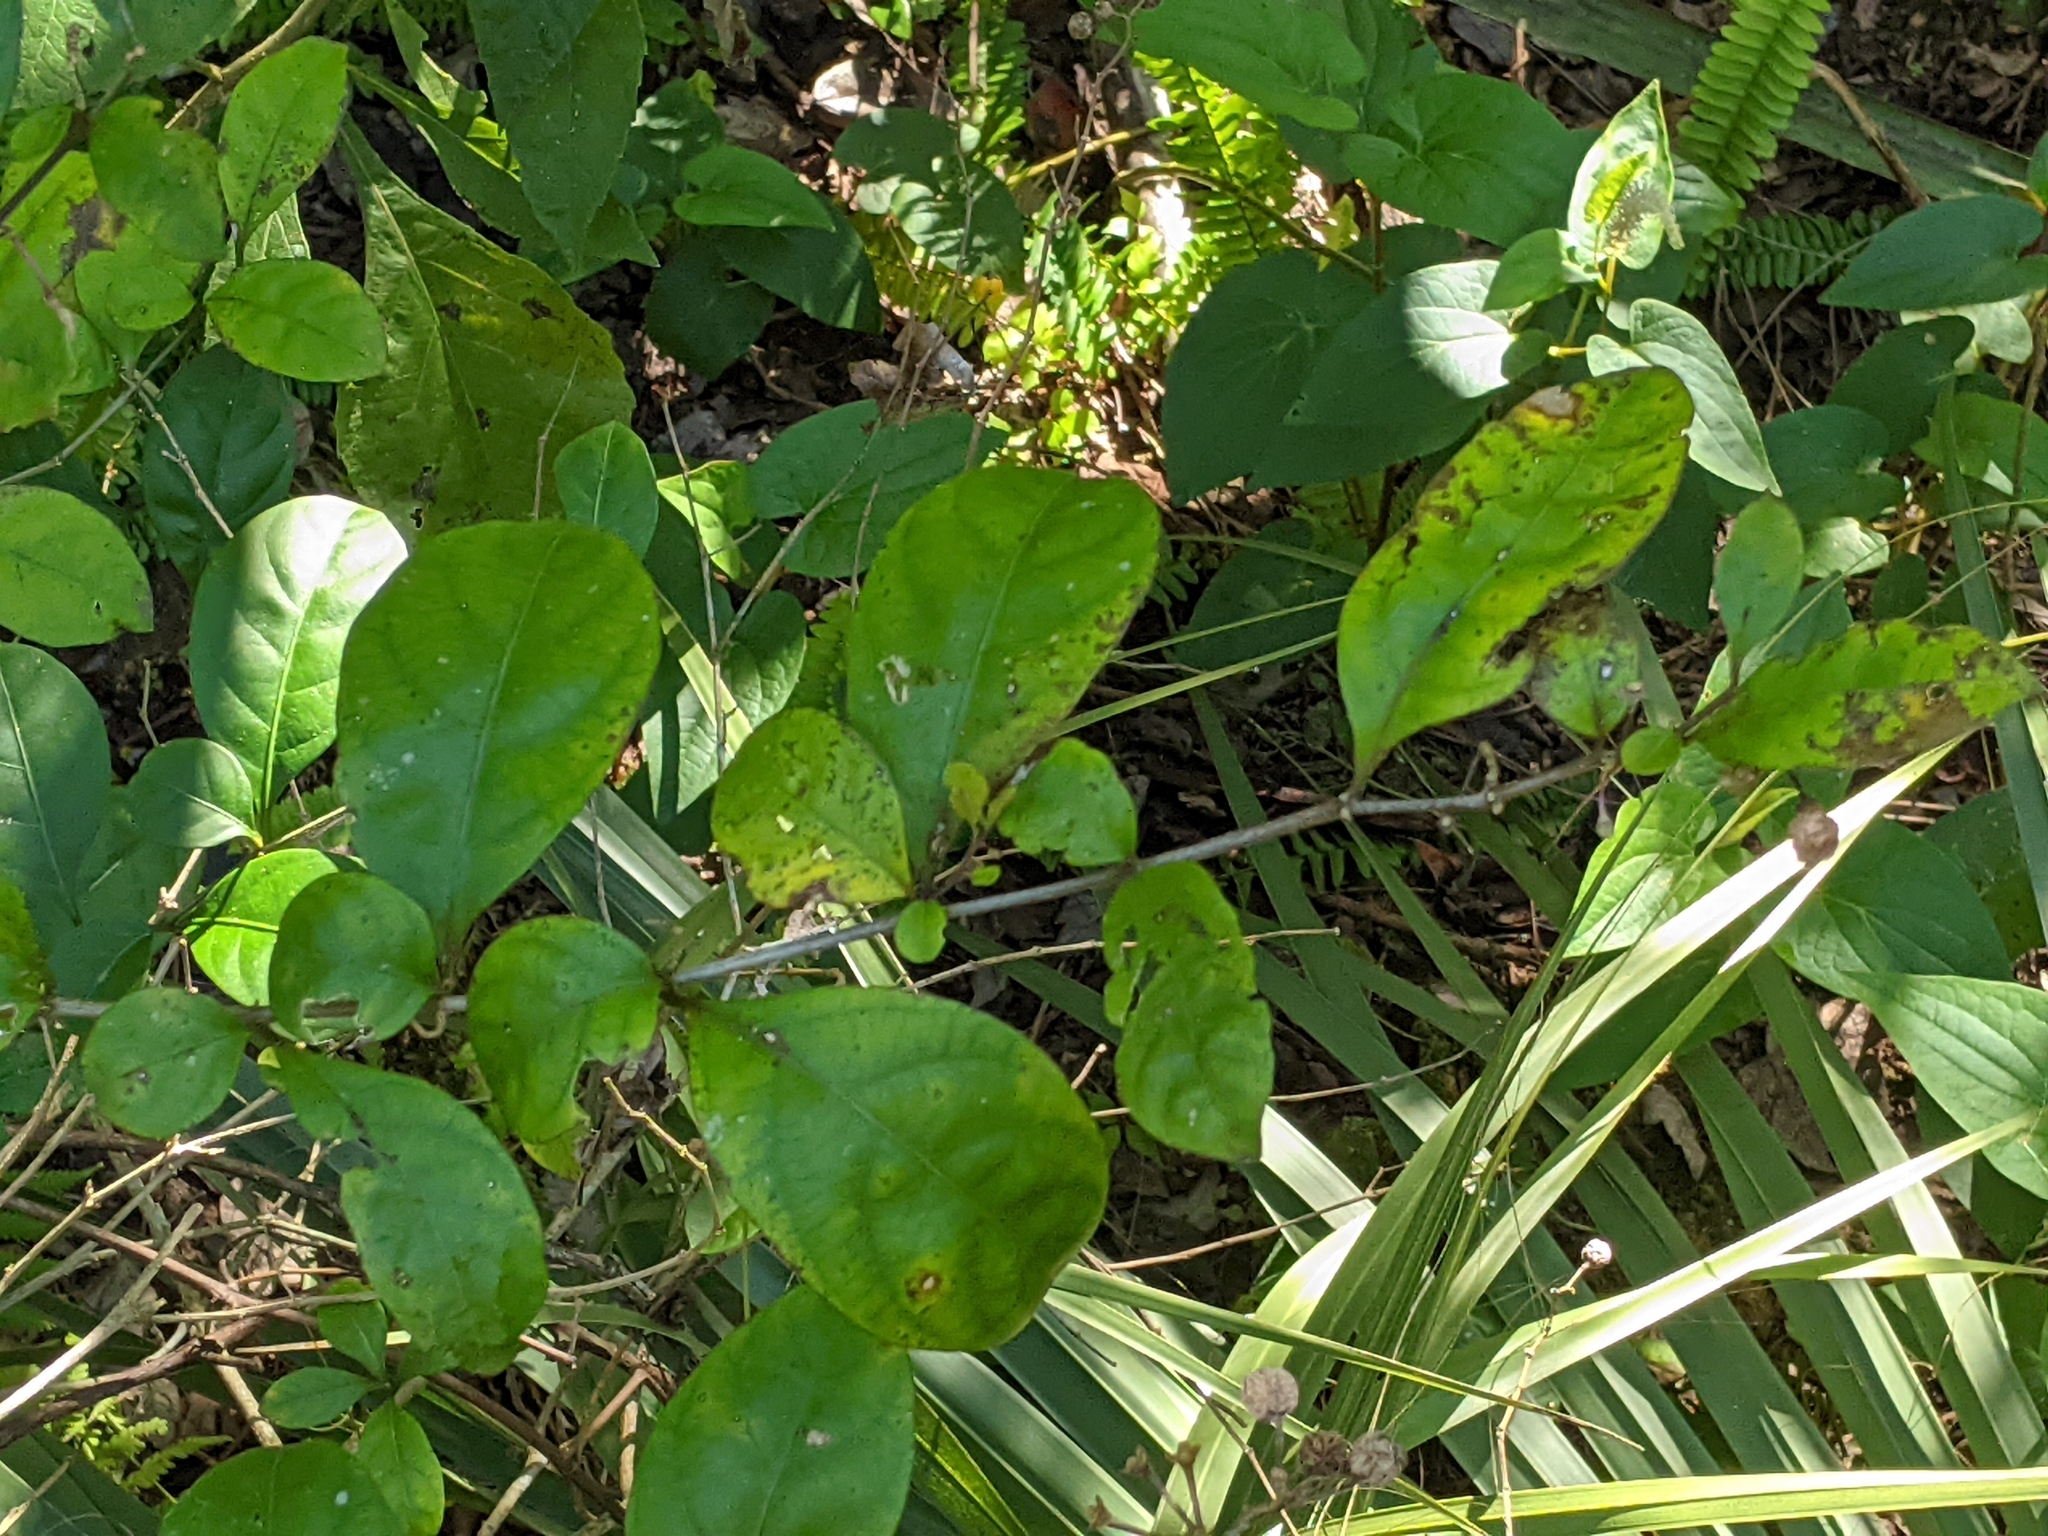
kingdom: Plantae
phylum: Tracheophyta
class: Magnoliopsida
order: Solanales
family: Solanaceae
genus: Solanum
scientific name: Solanum diphyllum
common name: Twoleaf nightshade
